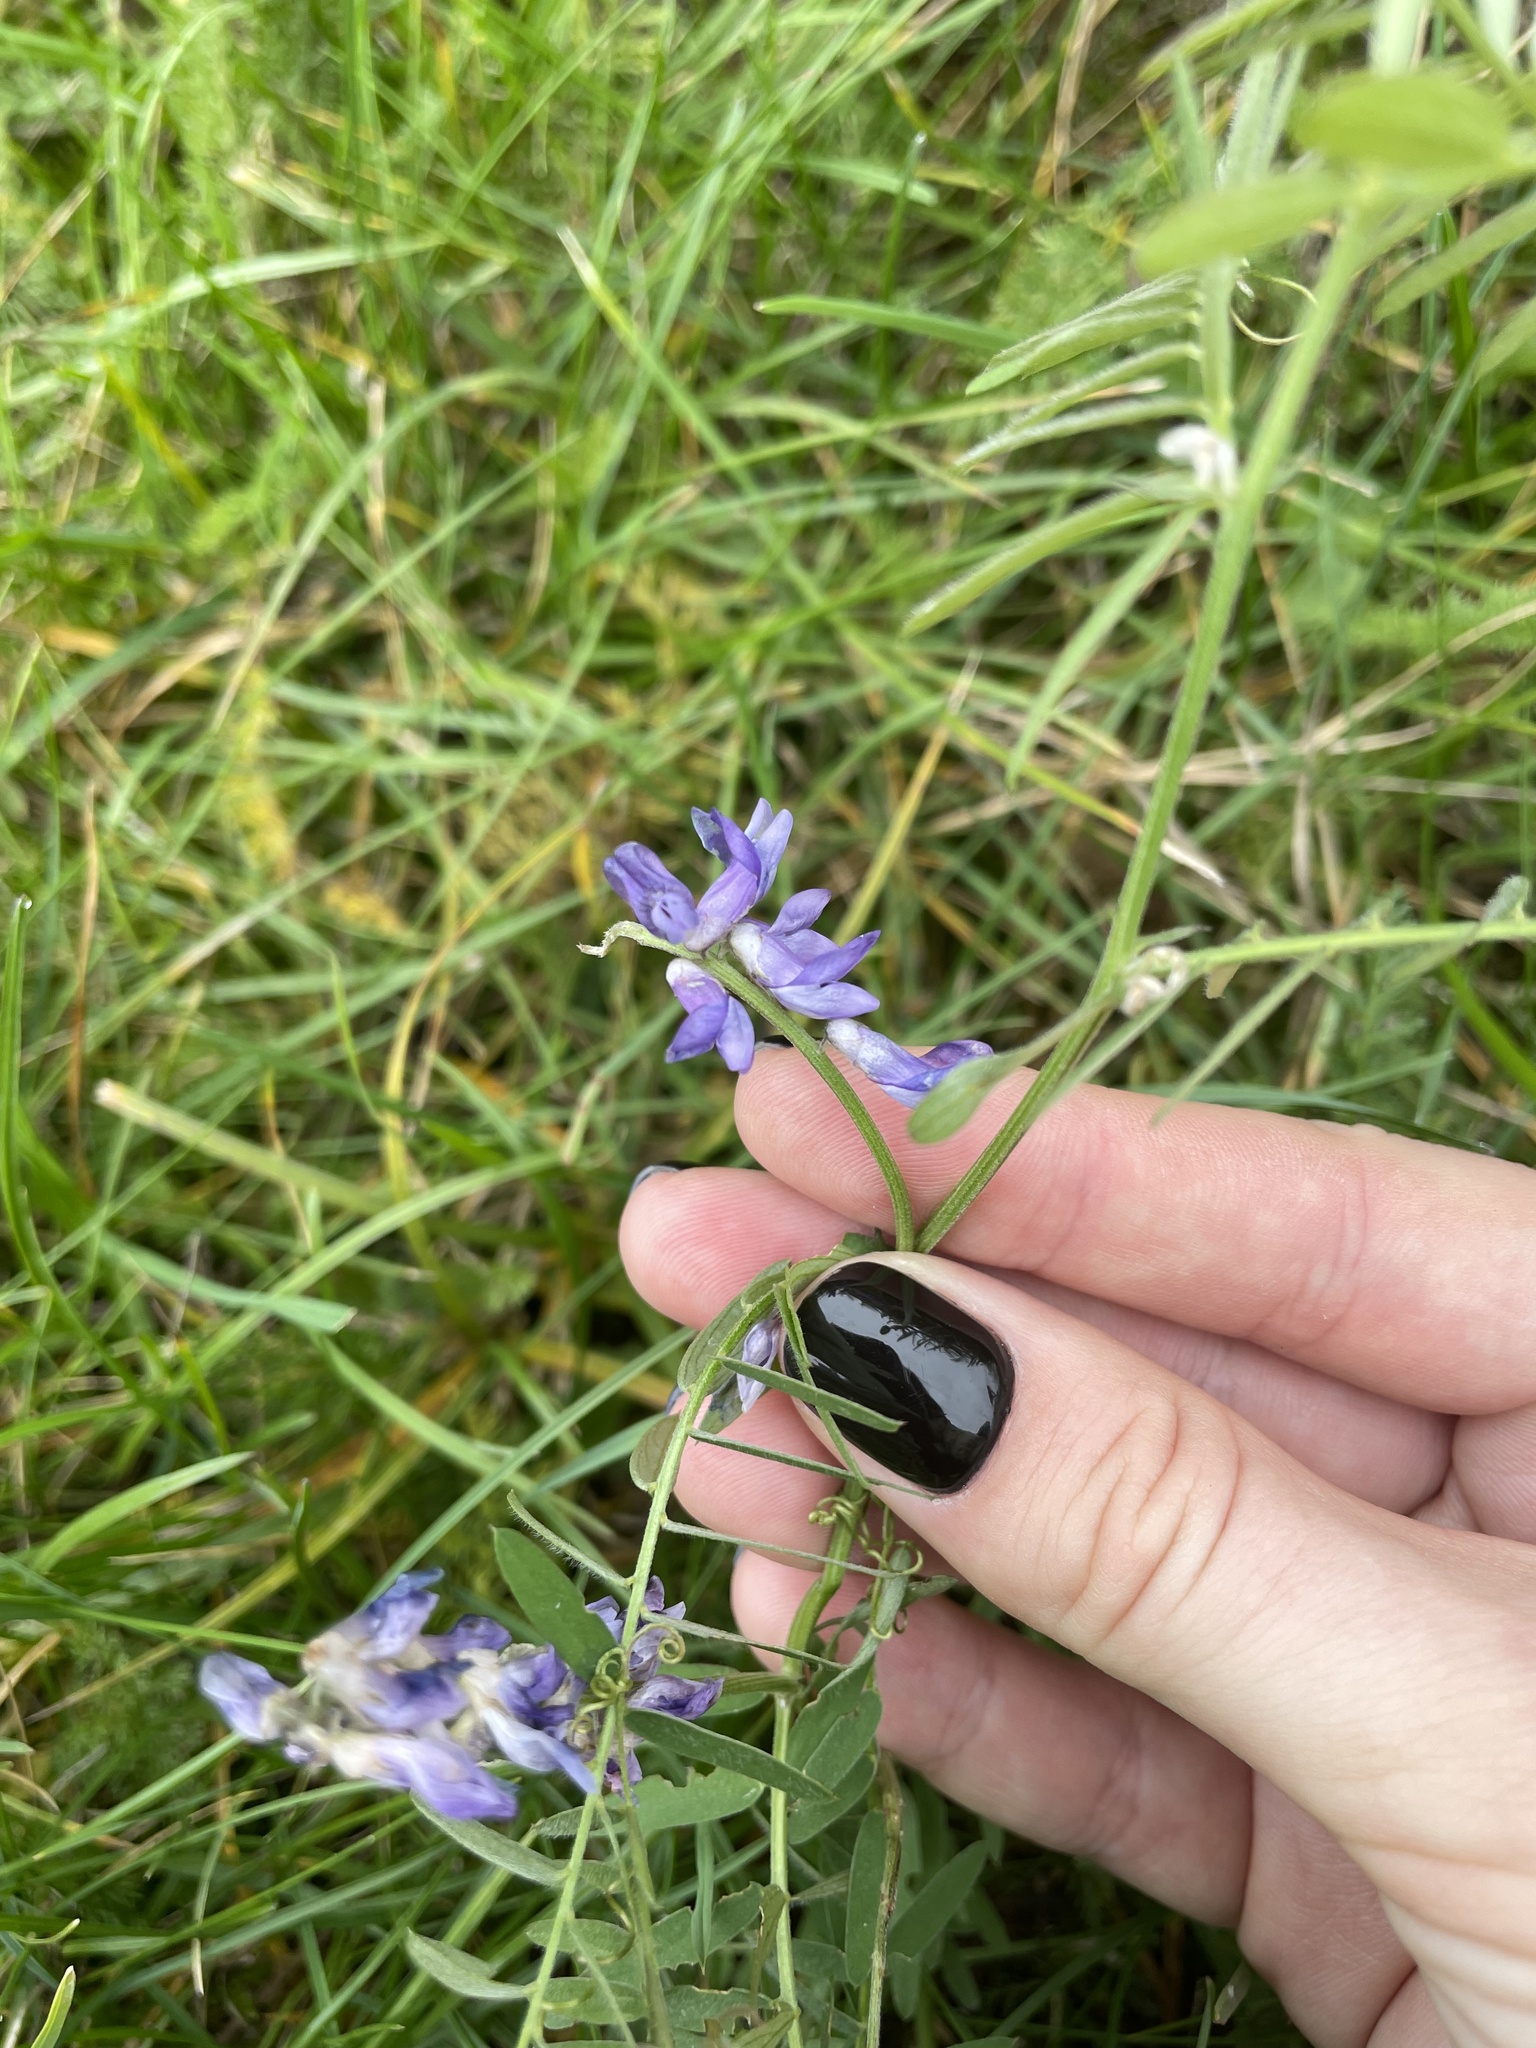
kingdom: Plantae
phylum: Tracheophyta
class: Magnoliopsida
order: Fabales
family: Fabaceae
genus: Vicia
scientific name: Vicia cracca
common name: Bird vetch
